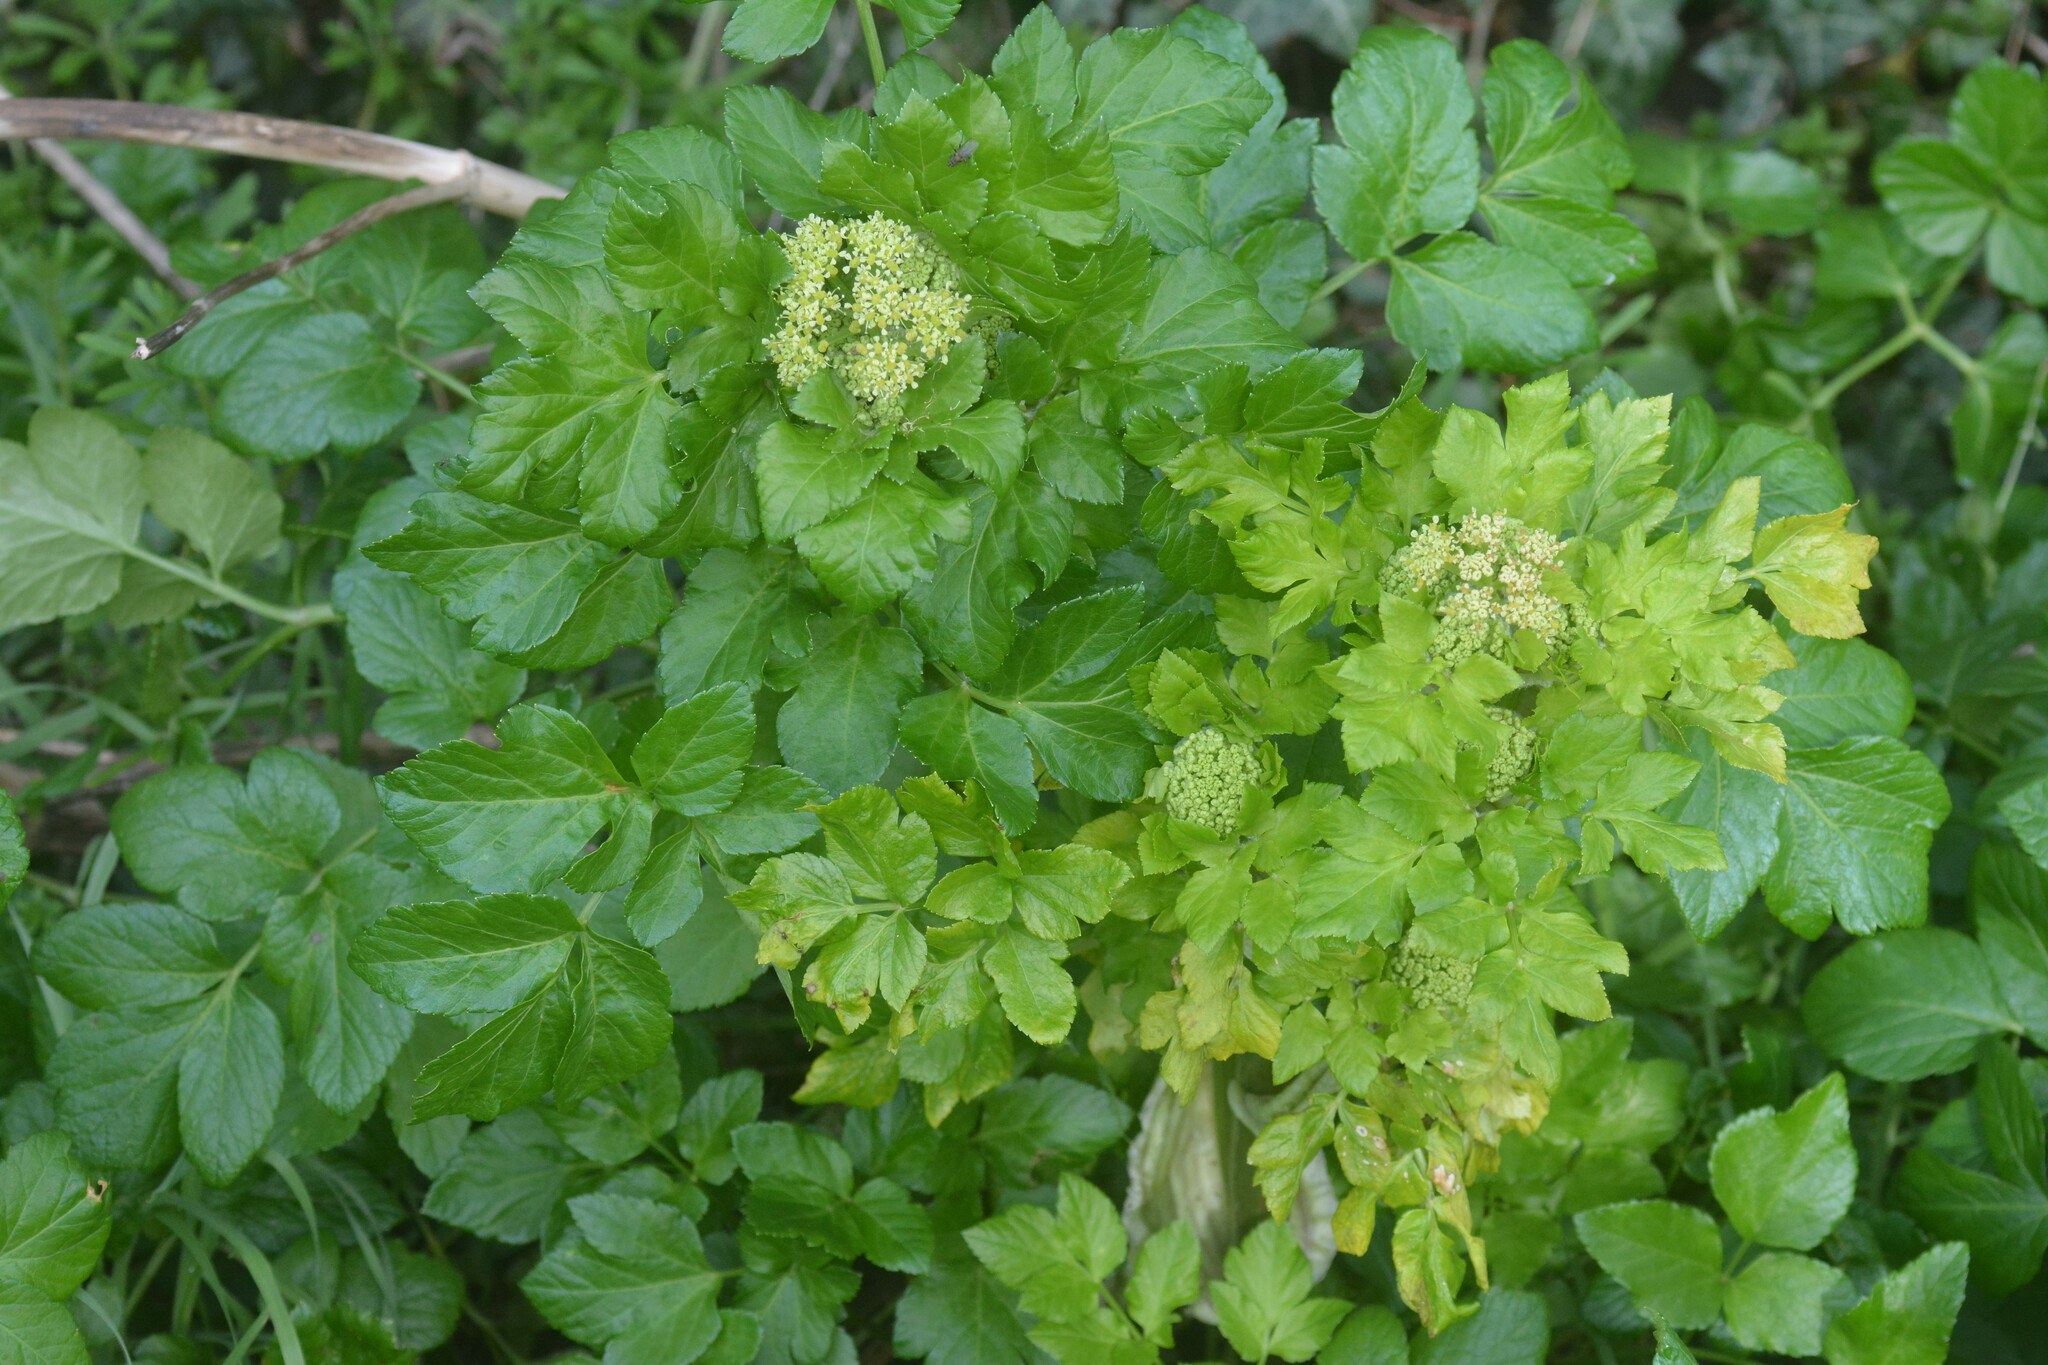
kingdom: Plantae
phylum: Tracheophyta
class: Magnoliopsida
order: Apiales
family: Apiaceae
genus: Smyrnium
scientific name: Smyrnium olusatrum
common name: Alexanders
